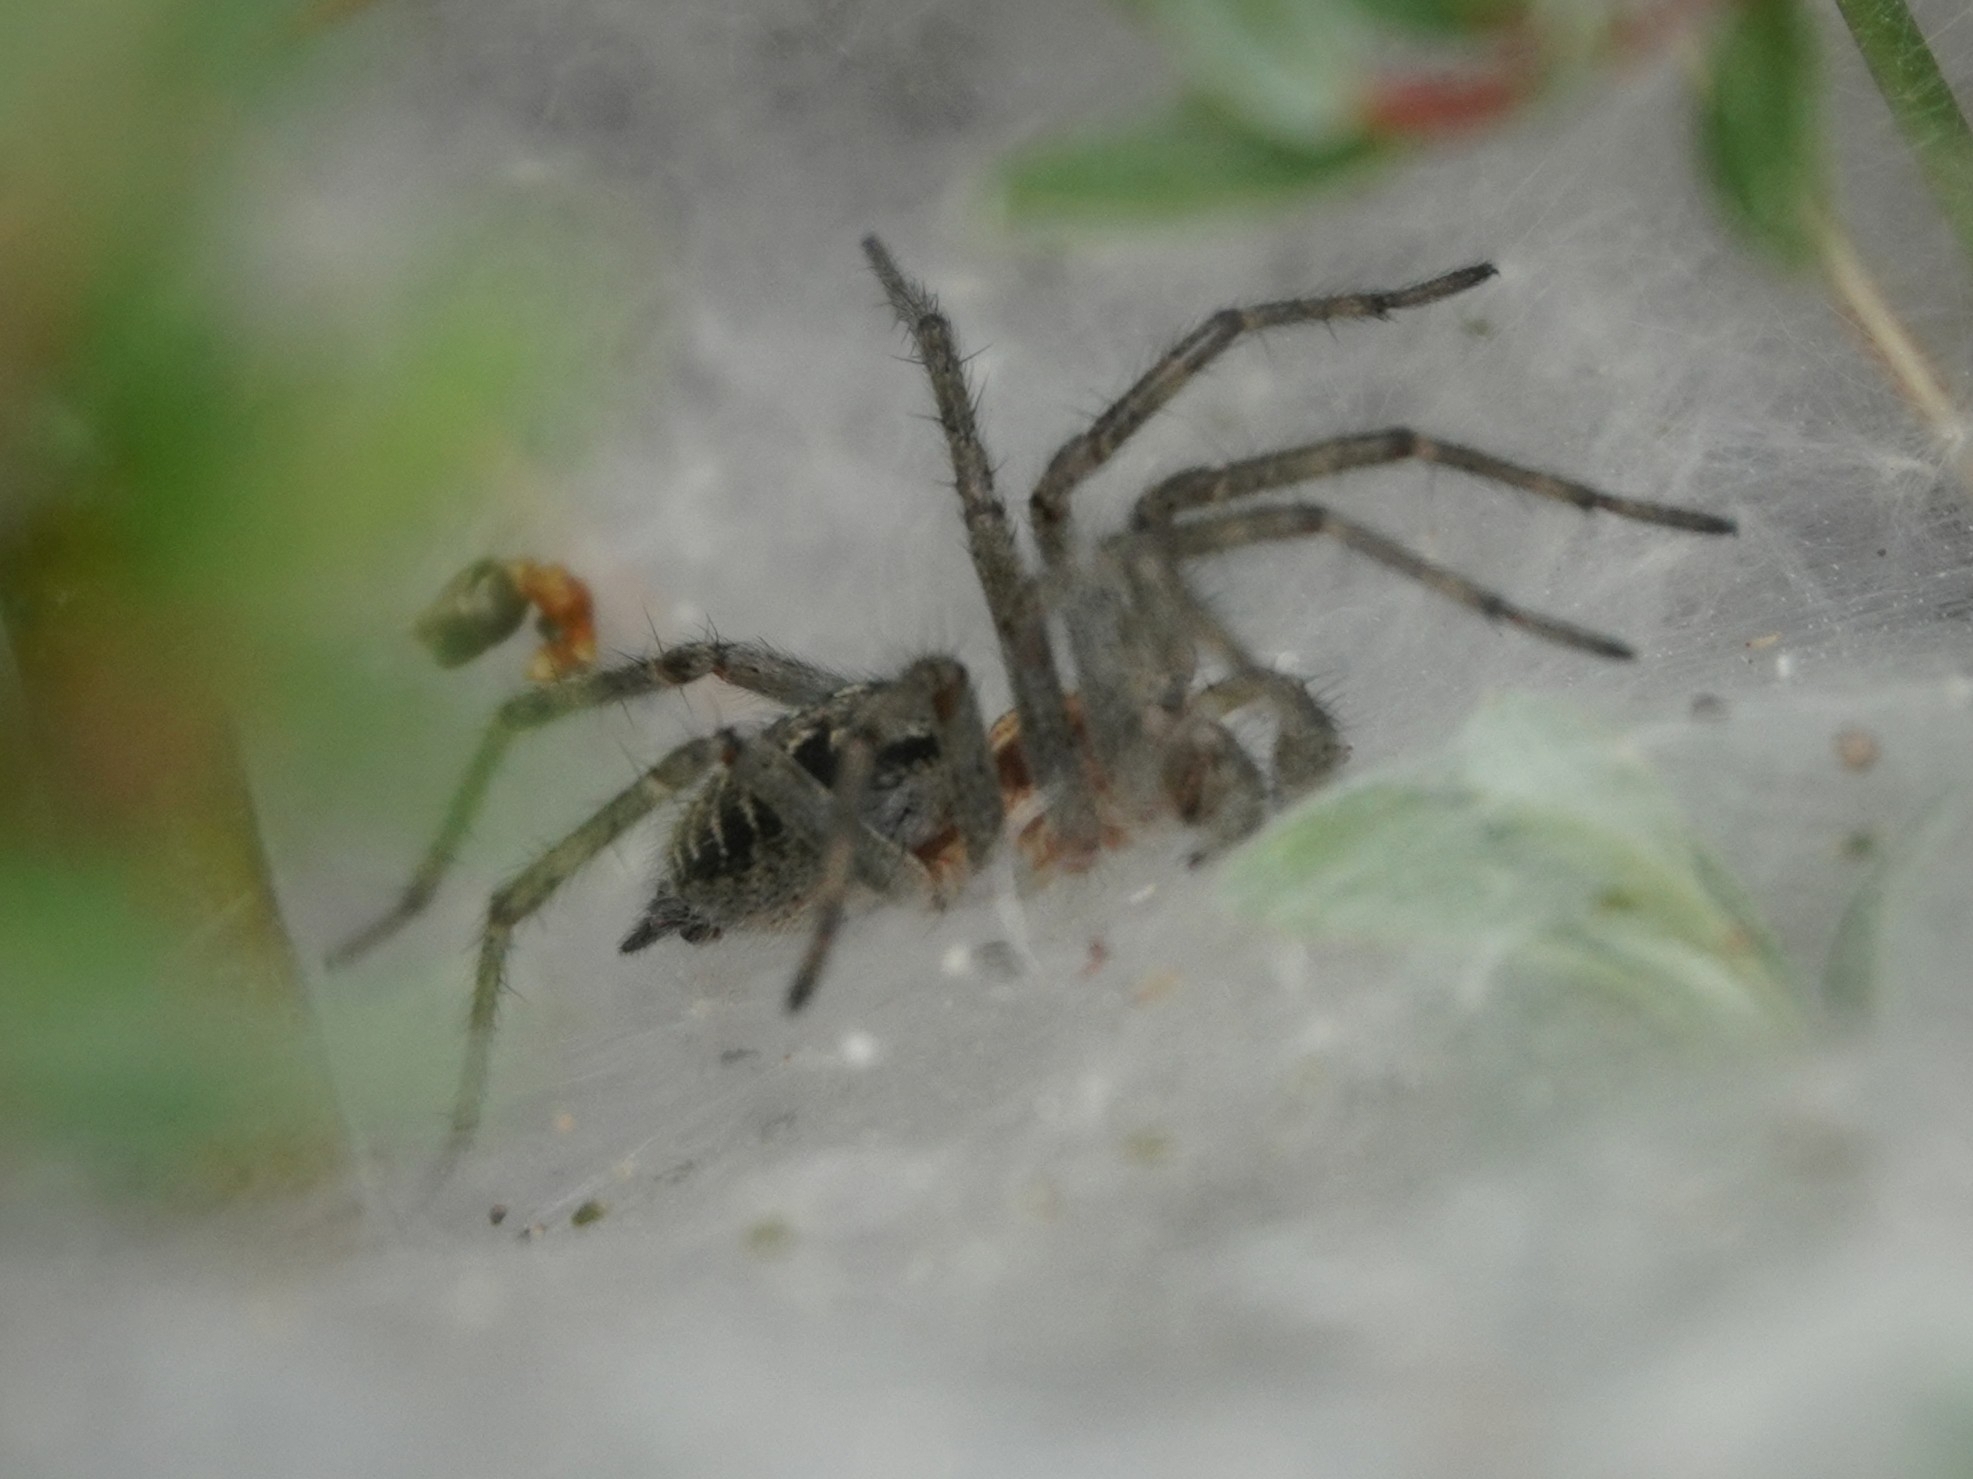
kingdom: Animalia
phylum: Arthropoda
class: Arachnida
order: Araneae
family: Agelenidae
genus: Agelena
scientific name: Agelena labyrinthica
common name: Labyrinth spider
